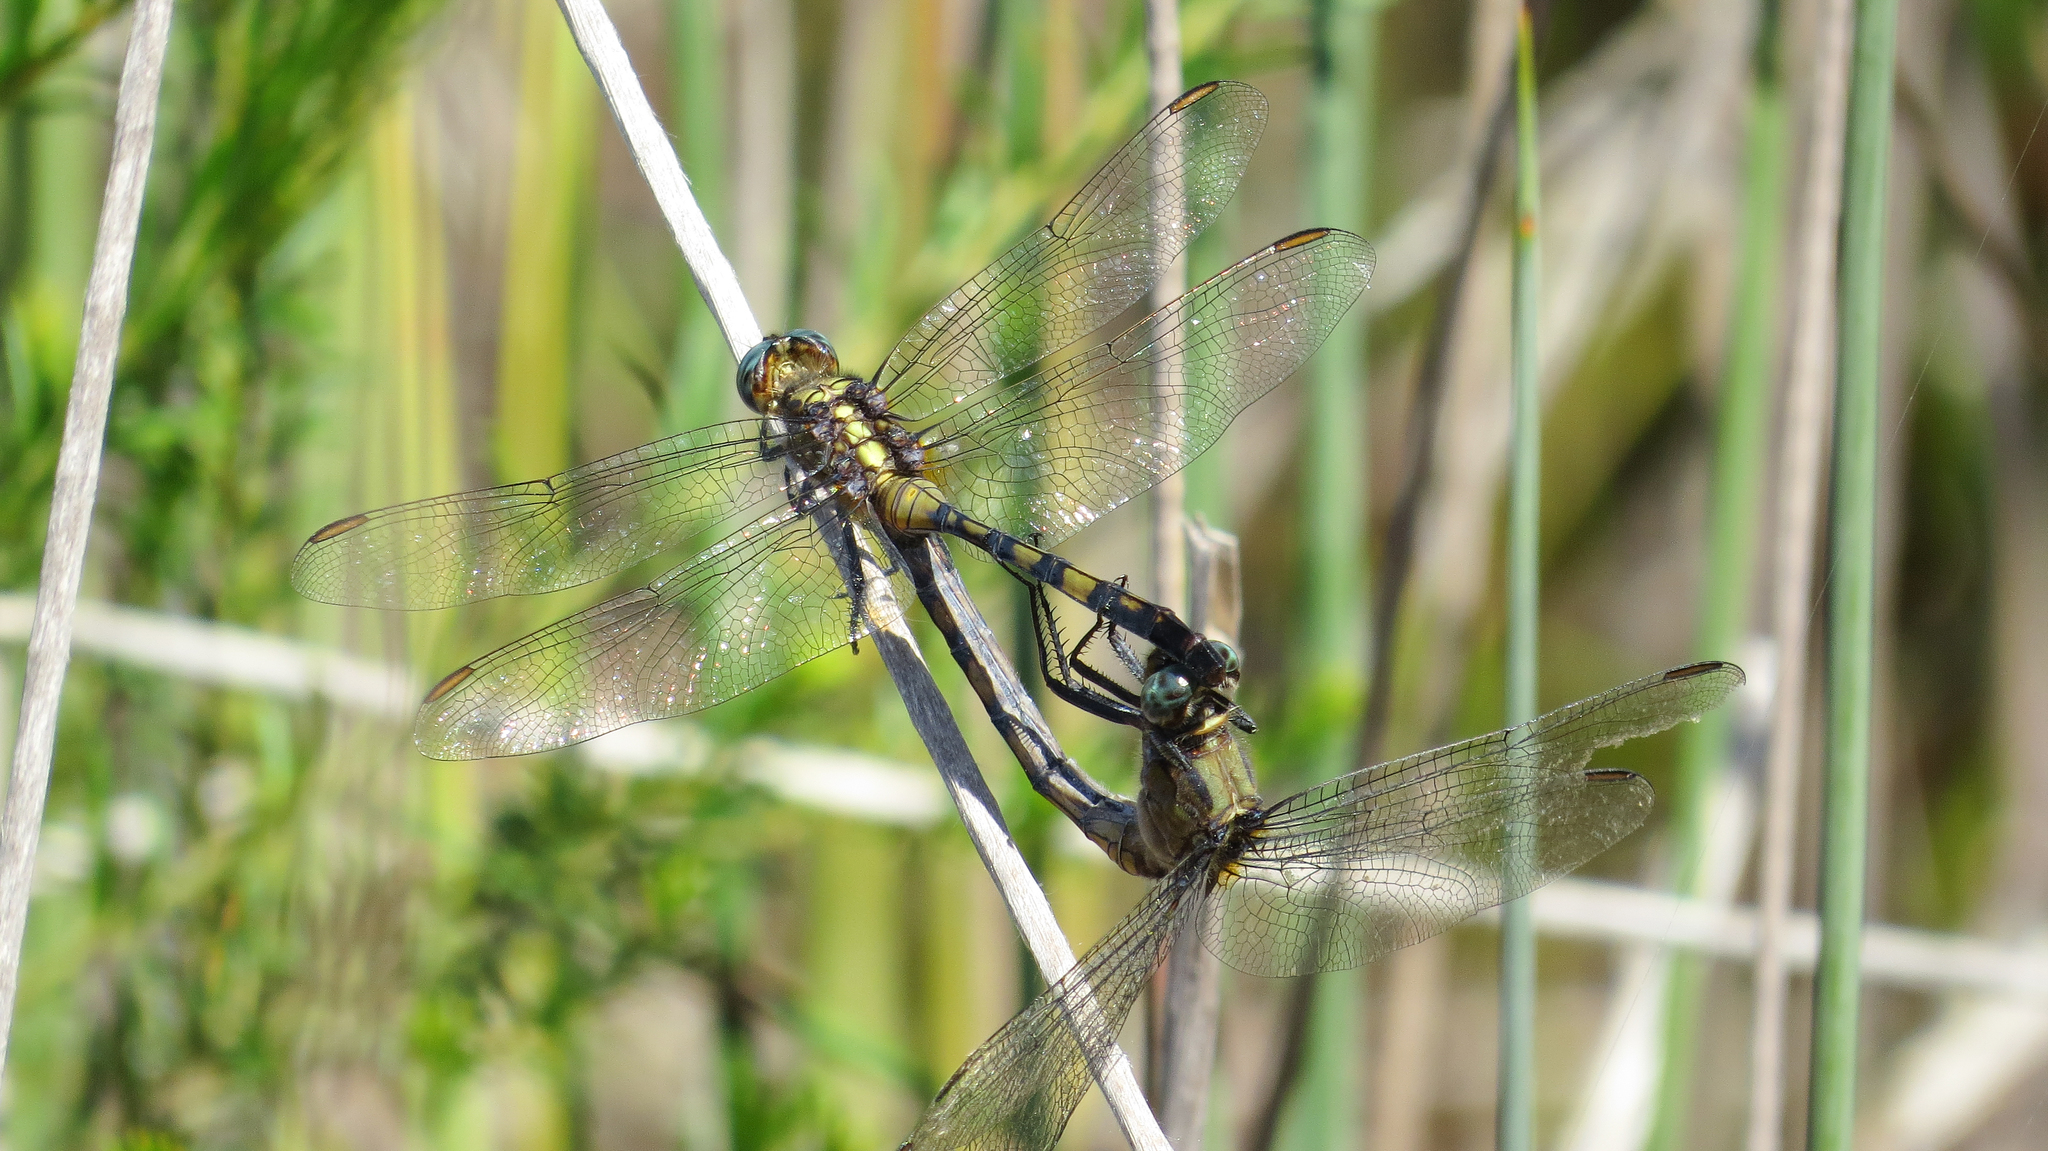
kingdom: Animalia
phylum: Arthropoda
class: Insecta
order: Odonata
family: Libellulidae
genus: Orthetrum
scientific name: Orthetrum boumiera
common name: Brownwater skimmer
